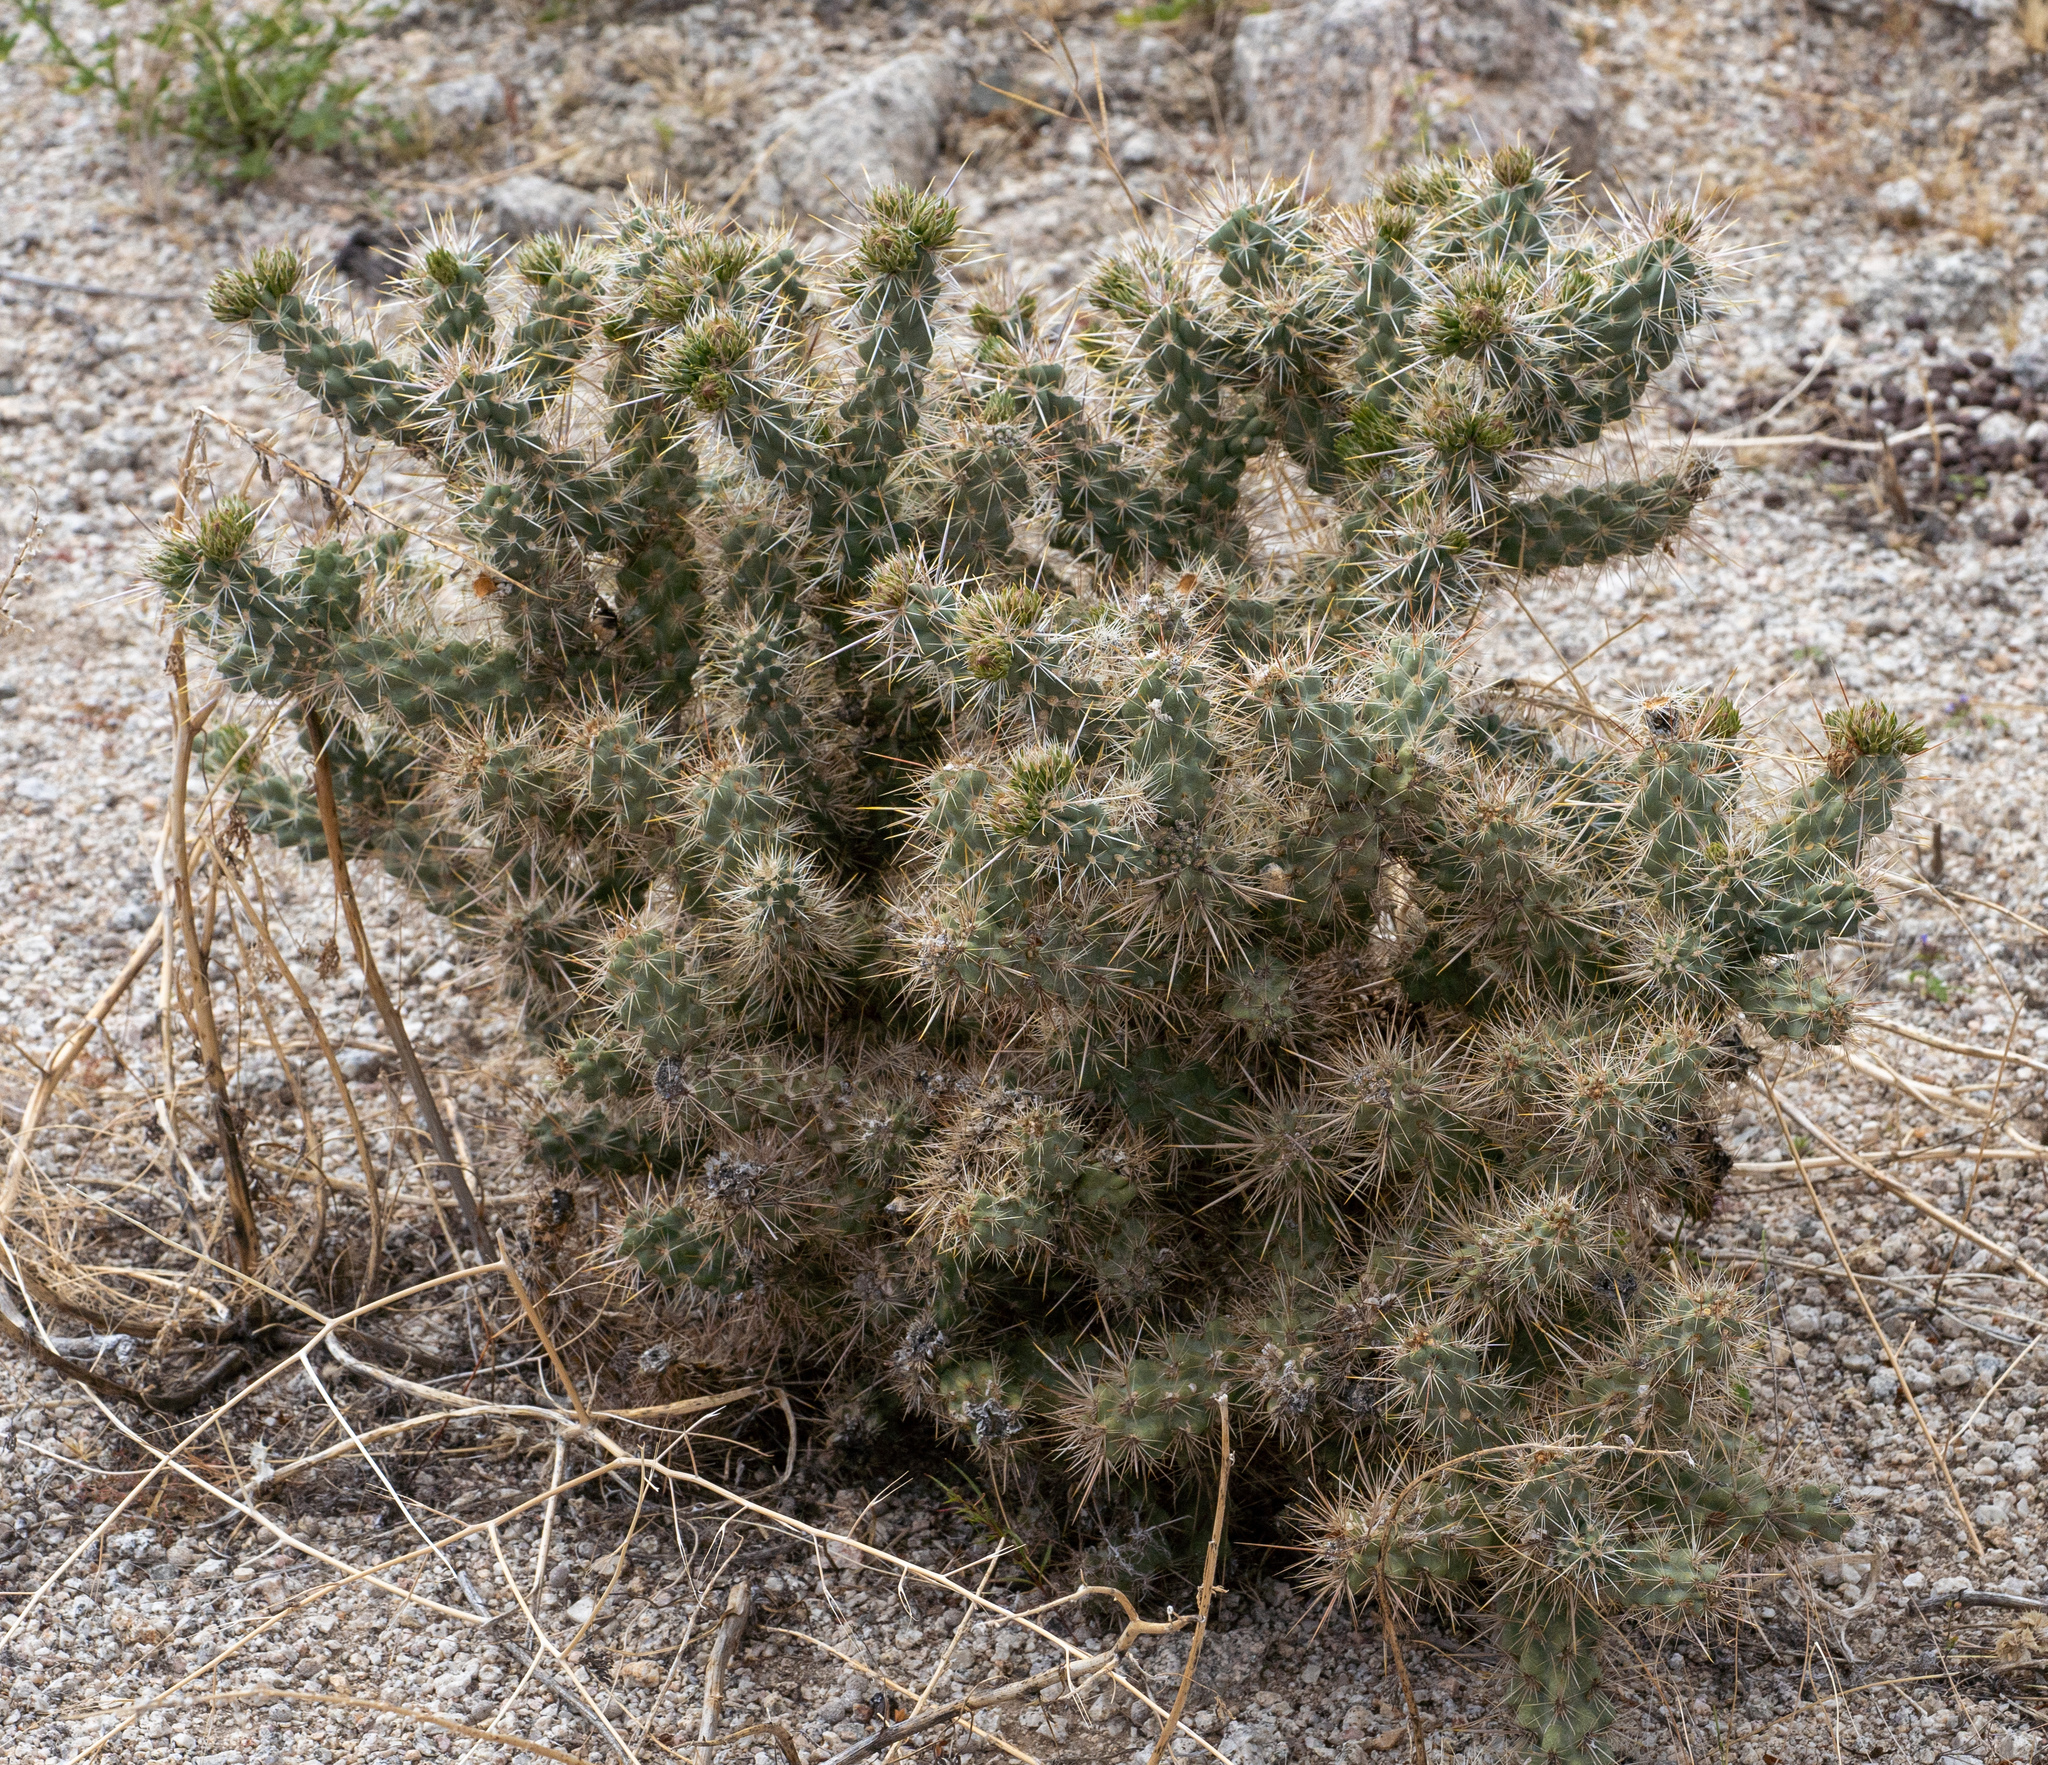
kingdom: Plantae
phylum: Tracheophyta
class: Magnoliopsida
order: Caryophyllales
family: Cactaceae
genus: Cylindropuntia
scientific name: Cylindropuntia echinocarpa
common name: Ground cholla
